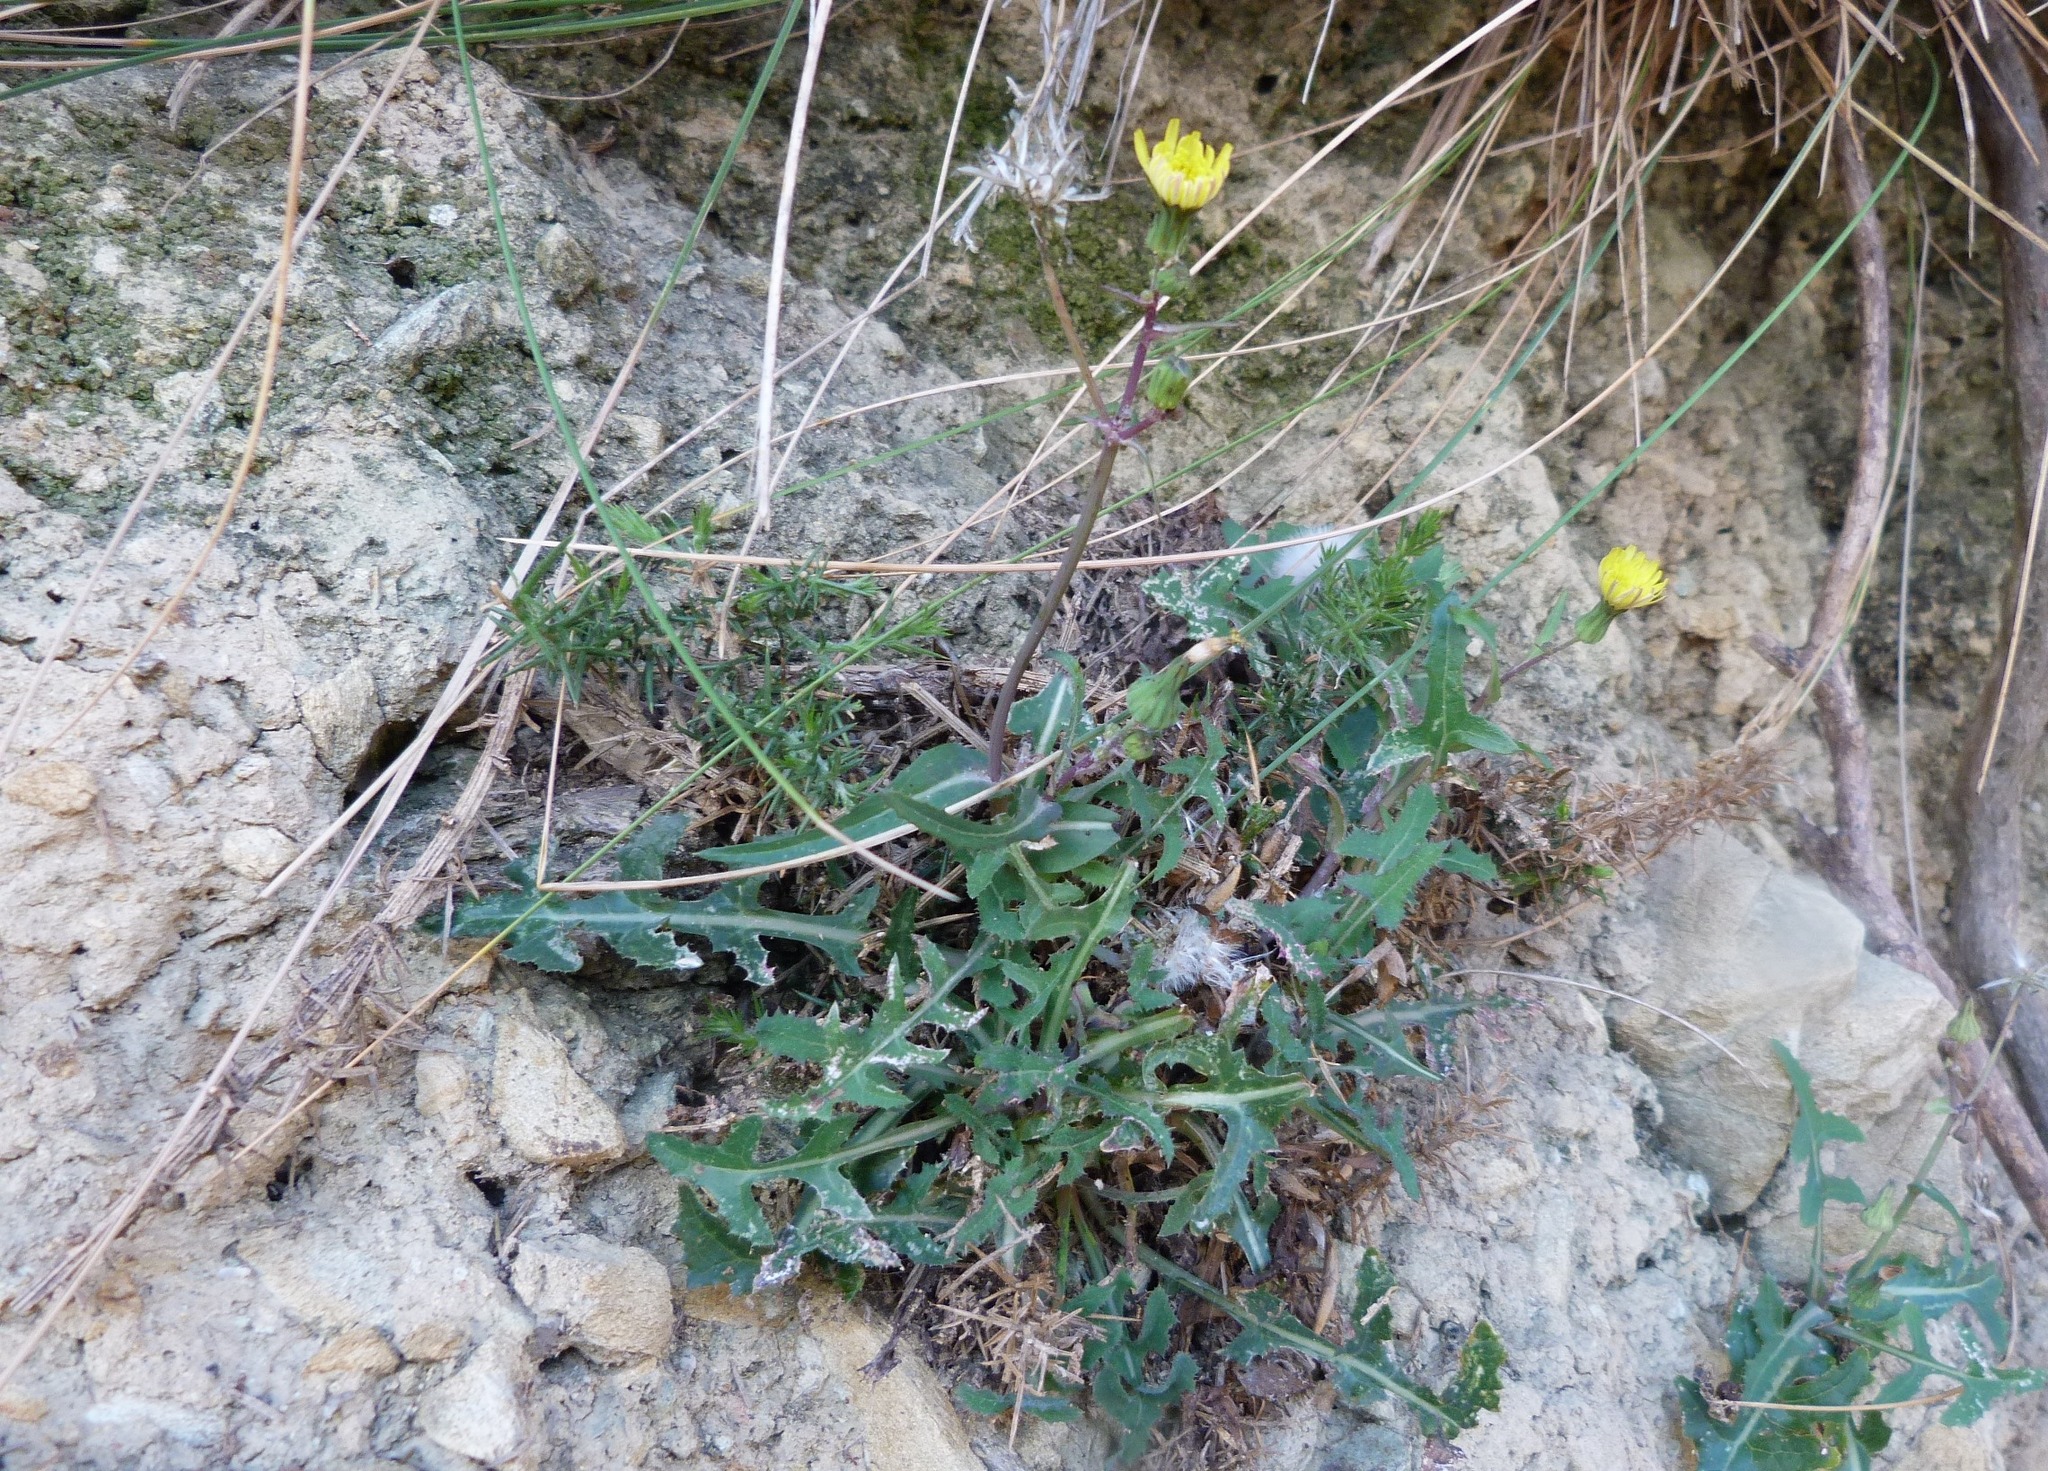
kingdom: Plantae
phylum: Tracheophyta
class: Magnoliopsida
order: Asterales
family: Asteraceae
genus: Sonchus
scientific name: Sonchus oleraceus
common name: Common sowthistle
